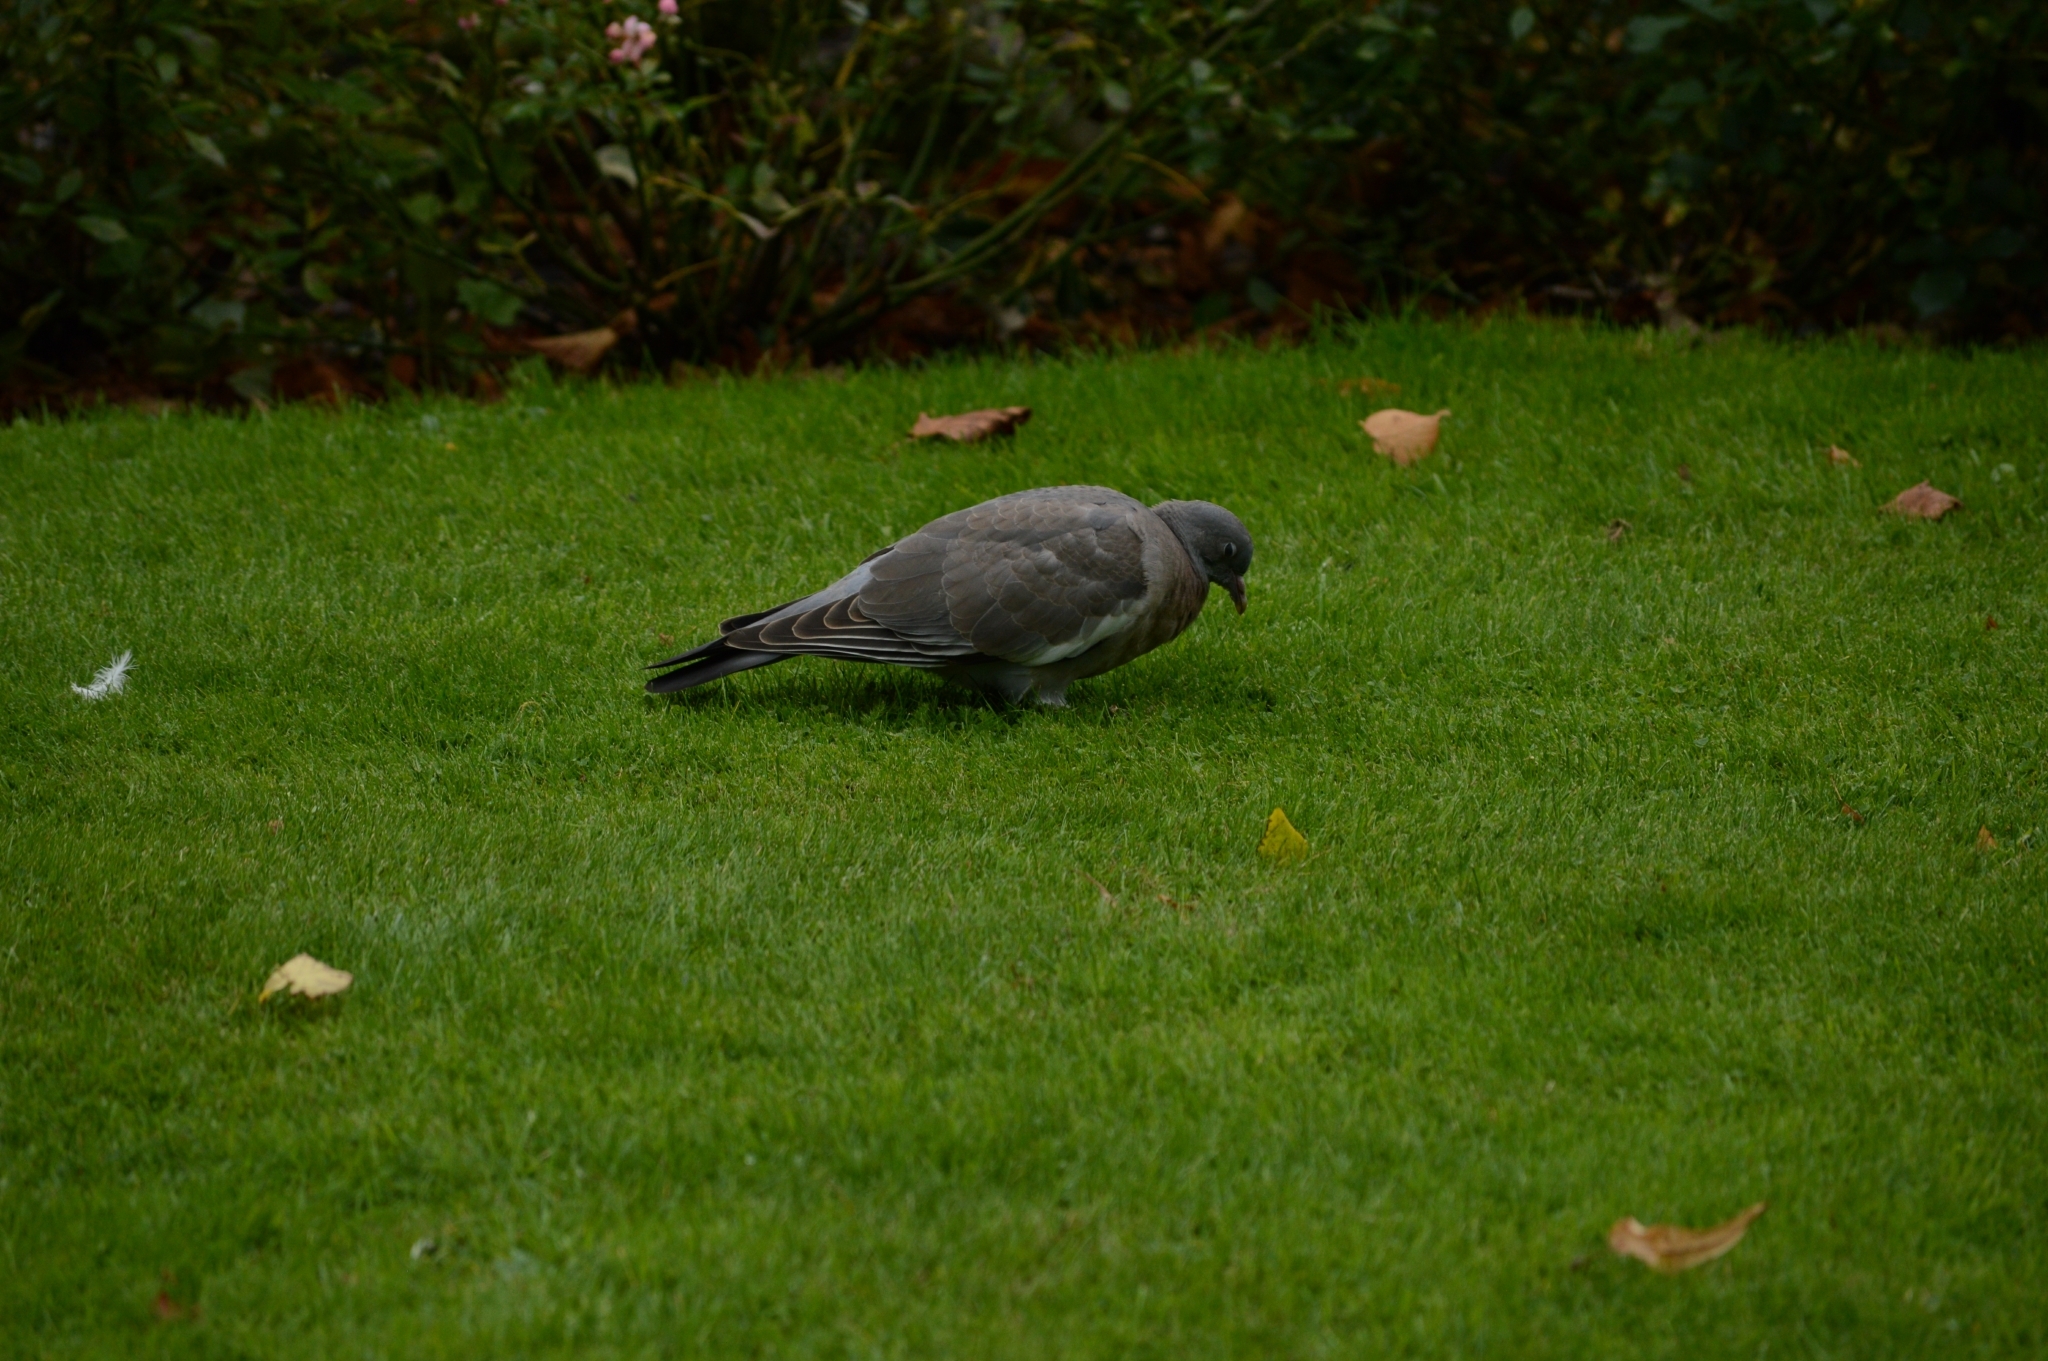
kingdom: Animalia
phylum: Chordata
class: Aves
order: Columbiformes
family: Columbidae
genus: Columba
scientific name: Columba palumbus
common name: Common wood pigeon
